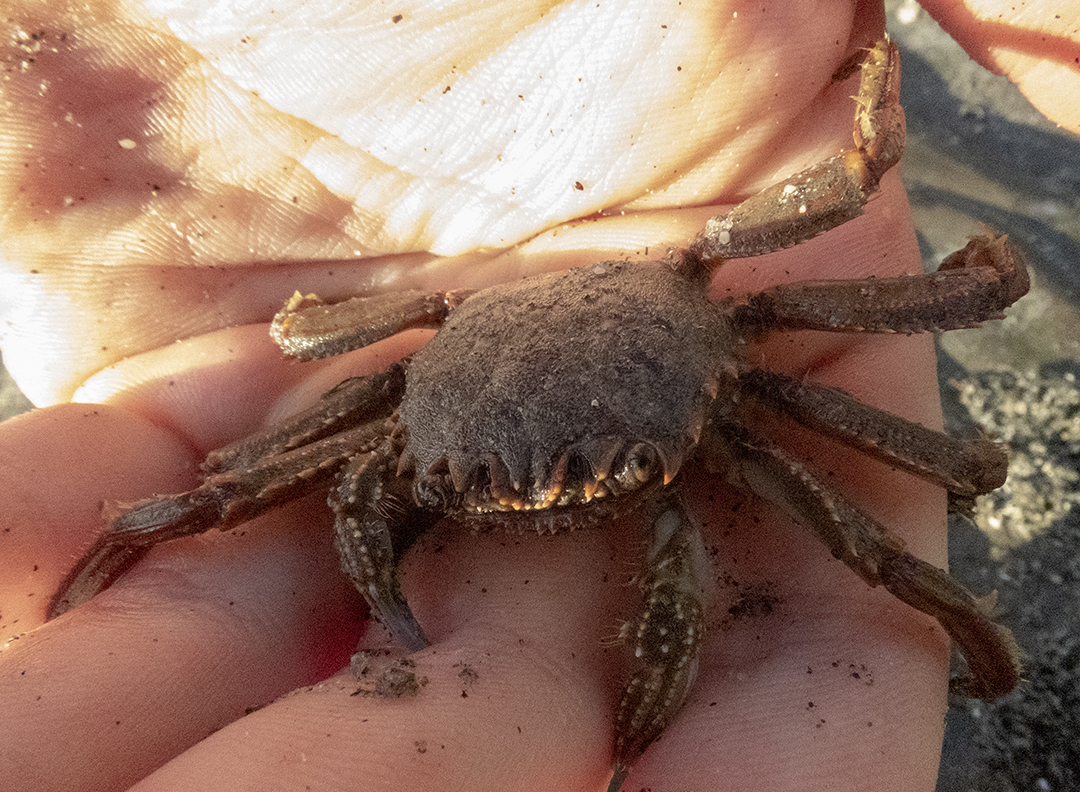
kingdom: Animalia
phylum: Arthropoda
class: Malacostraca
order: Decapoda
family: Plagusiidae
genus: Guinusia
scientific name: Guinusia chabrus
